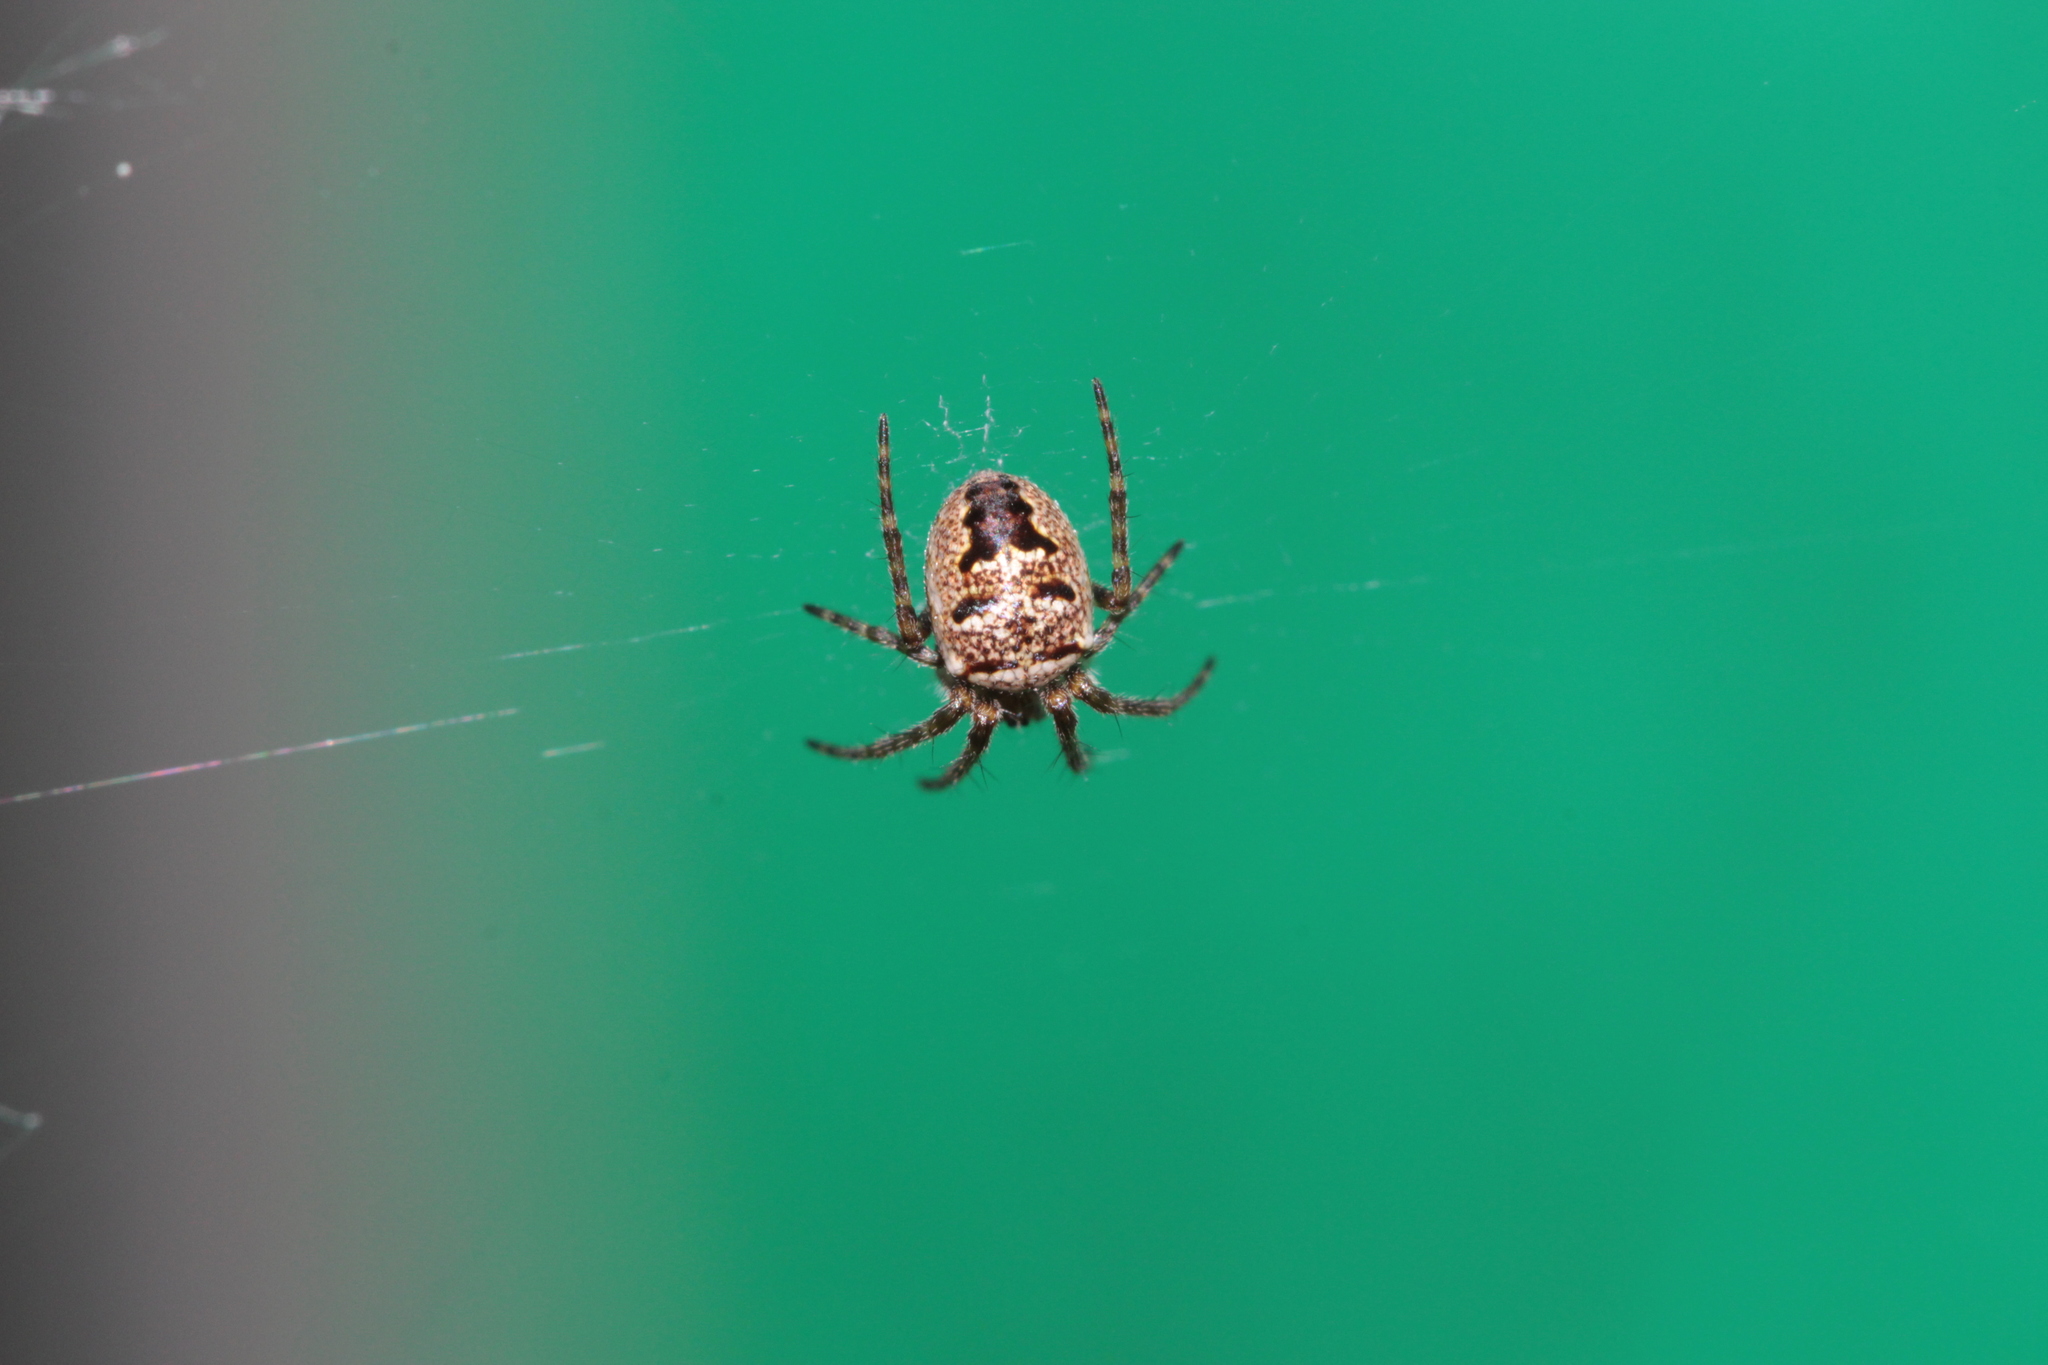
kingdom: Animalia
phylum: Arthropoda
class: Arachnida
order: Araneae
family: Araneidae
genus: Zilla
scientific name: Zilla diodia
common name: Zilla diodia
